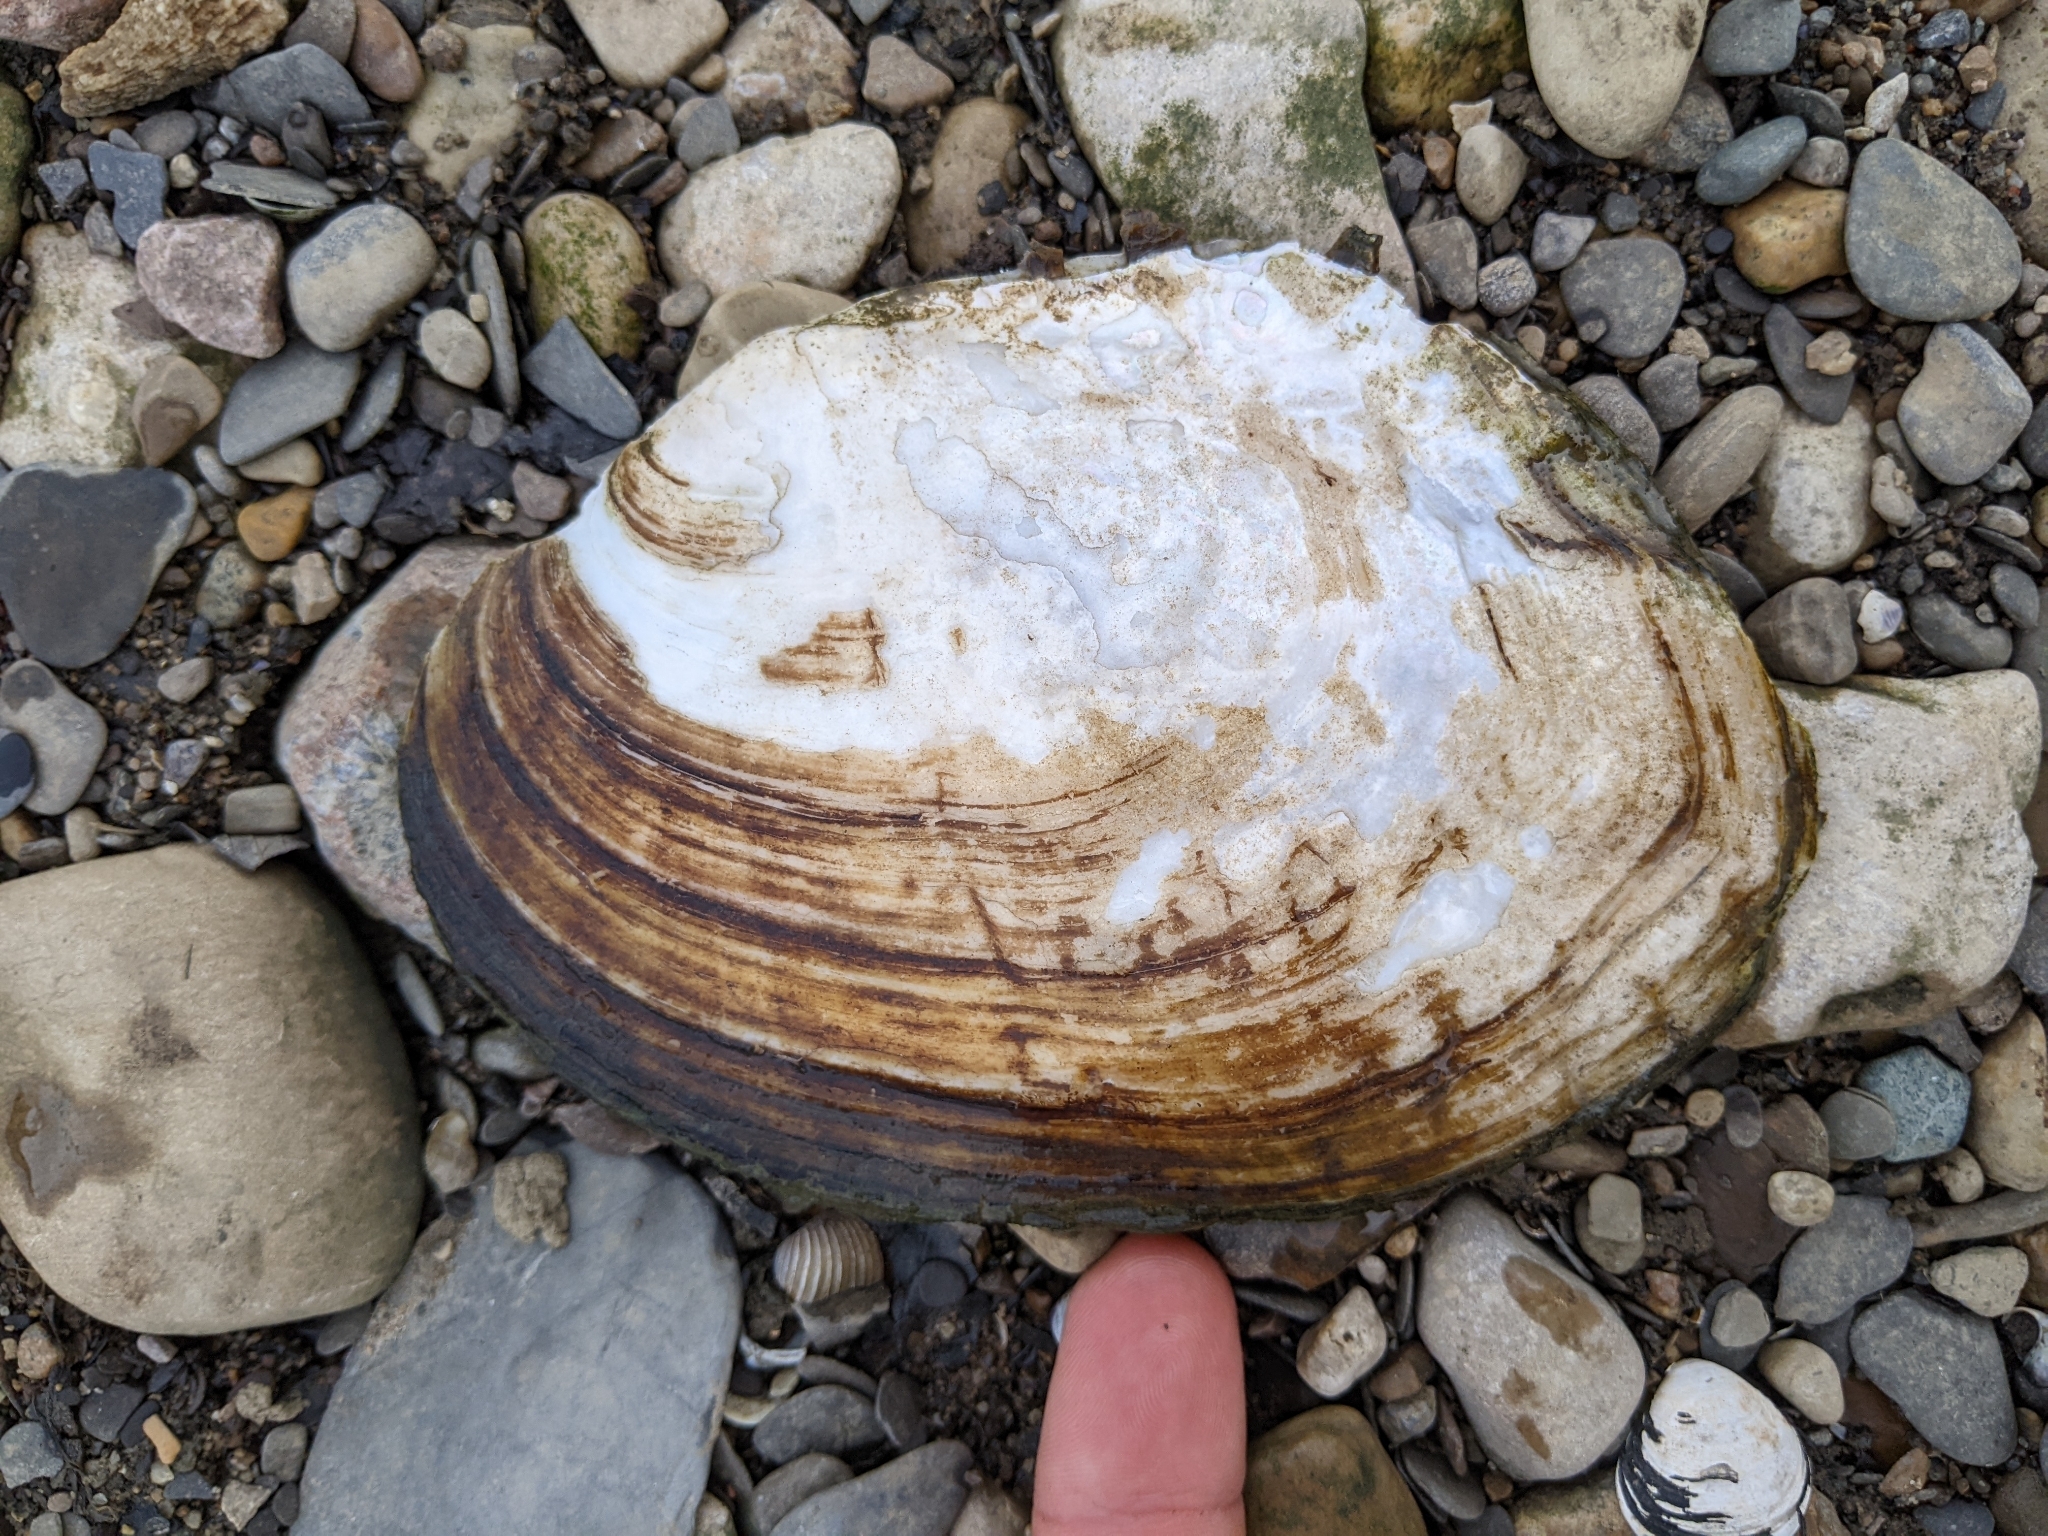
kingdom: Animalia
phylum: Mollusca
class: Bivalvia
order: Unionida
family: Unionidae
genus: Lasmigona
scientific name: Lasmigona complanata
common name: White heelsplitter
